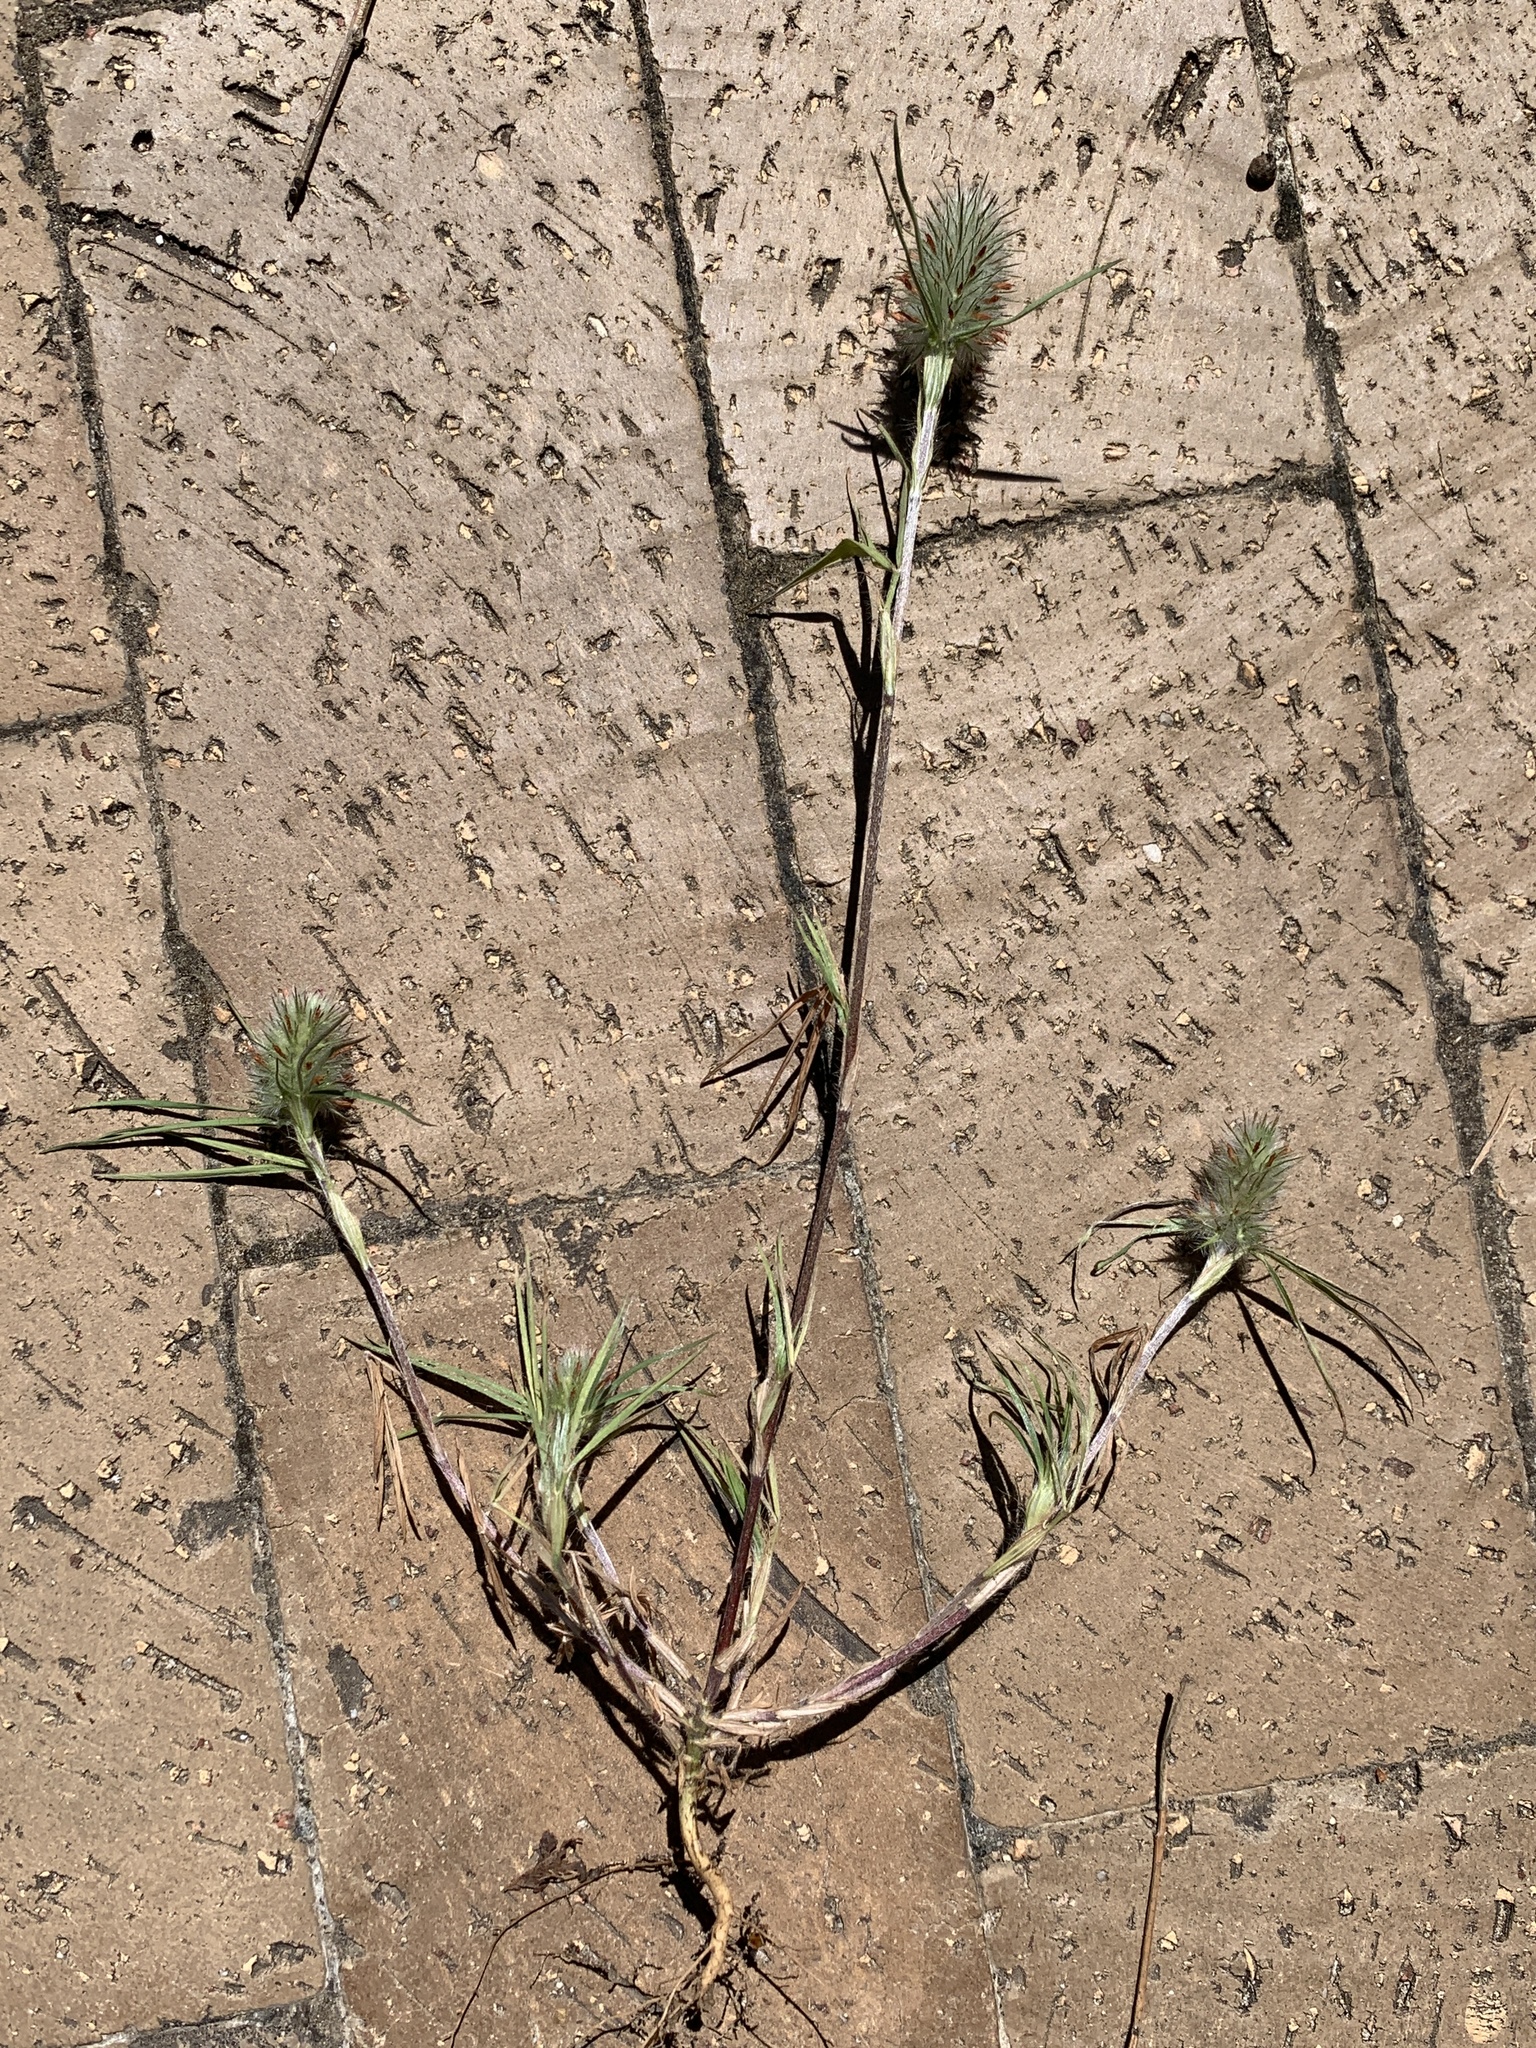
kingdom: Plantae
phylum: Tracheophyta
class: Magnoliopsida
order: Fabales
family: Fabaceae
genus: Trifolium
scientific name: Trifolium angustifolium
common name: Narrow clover
